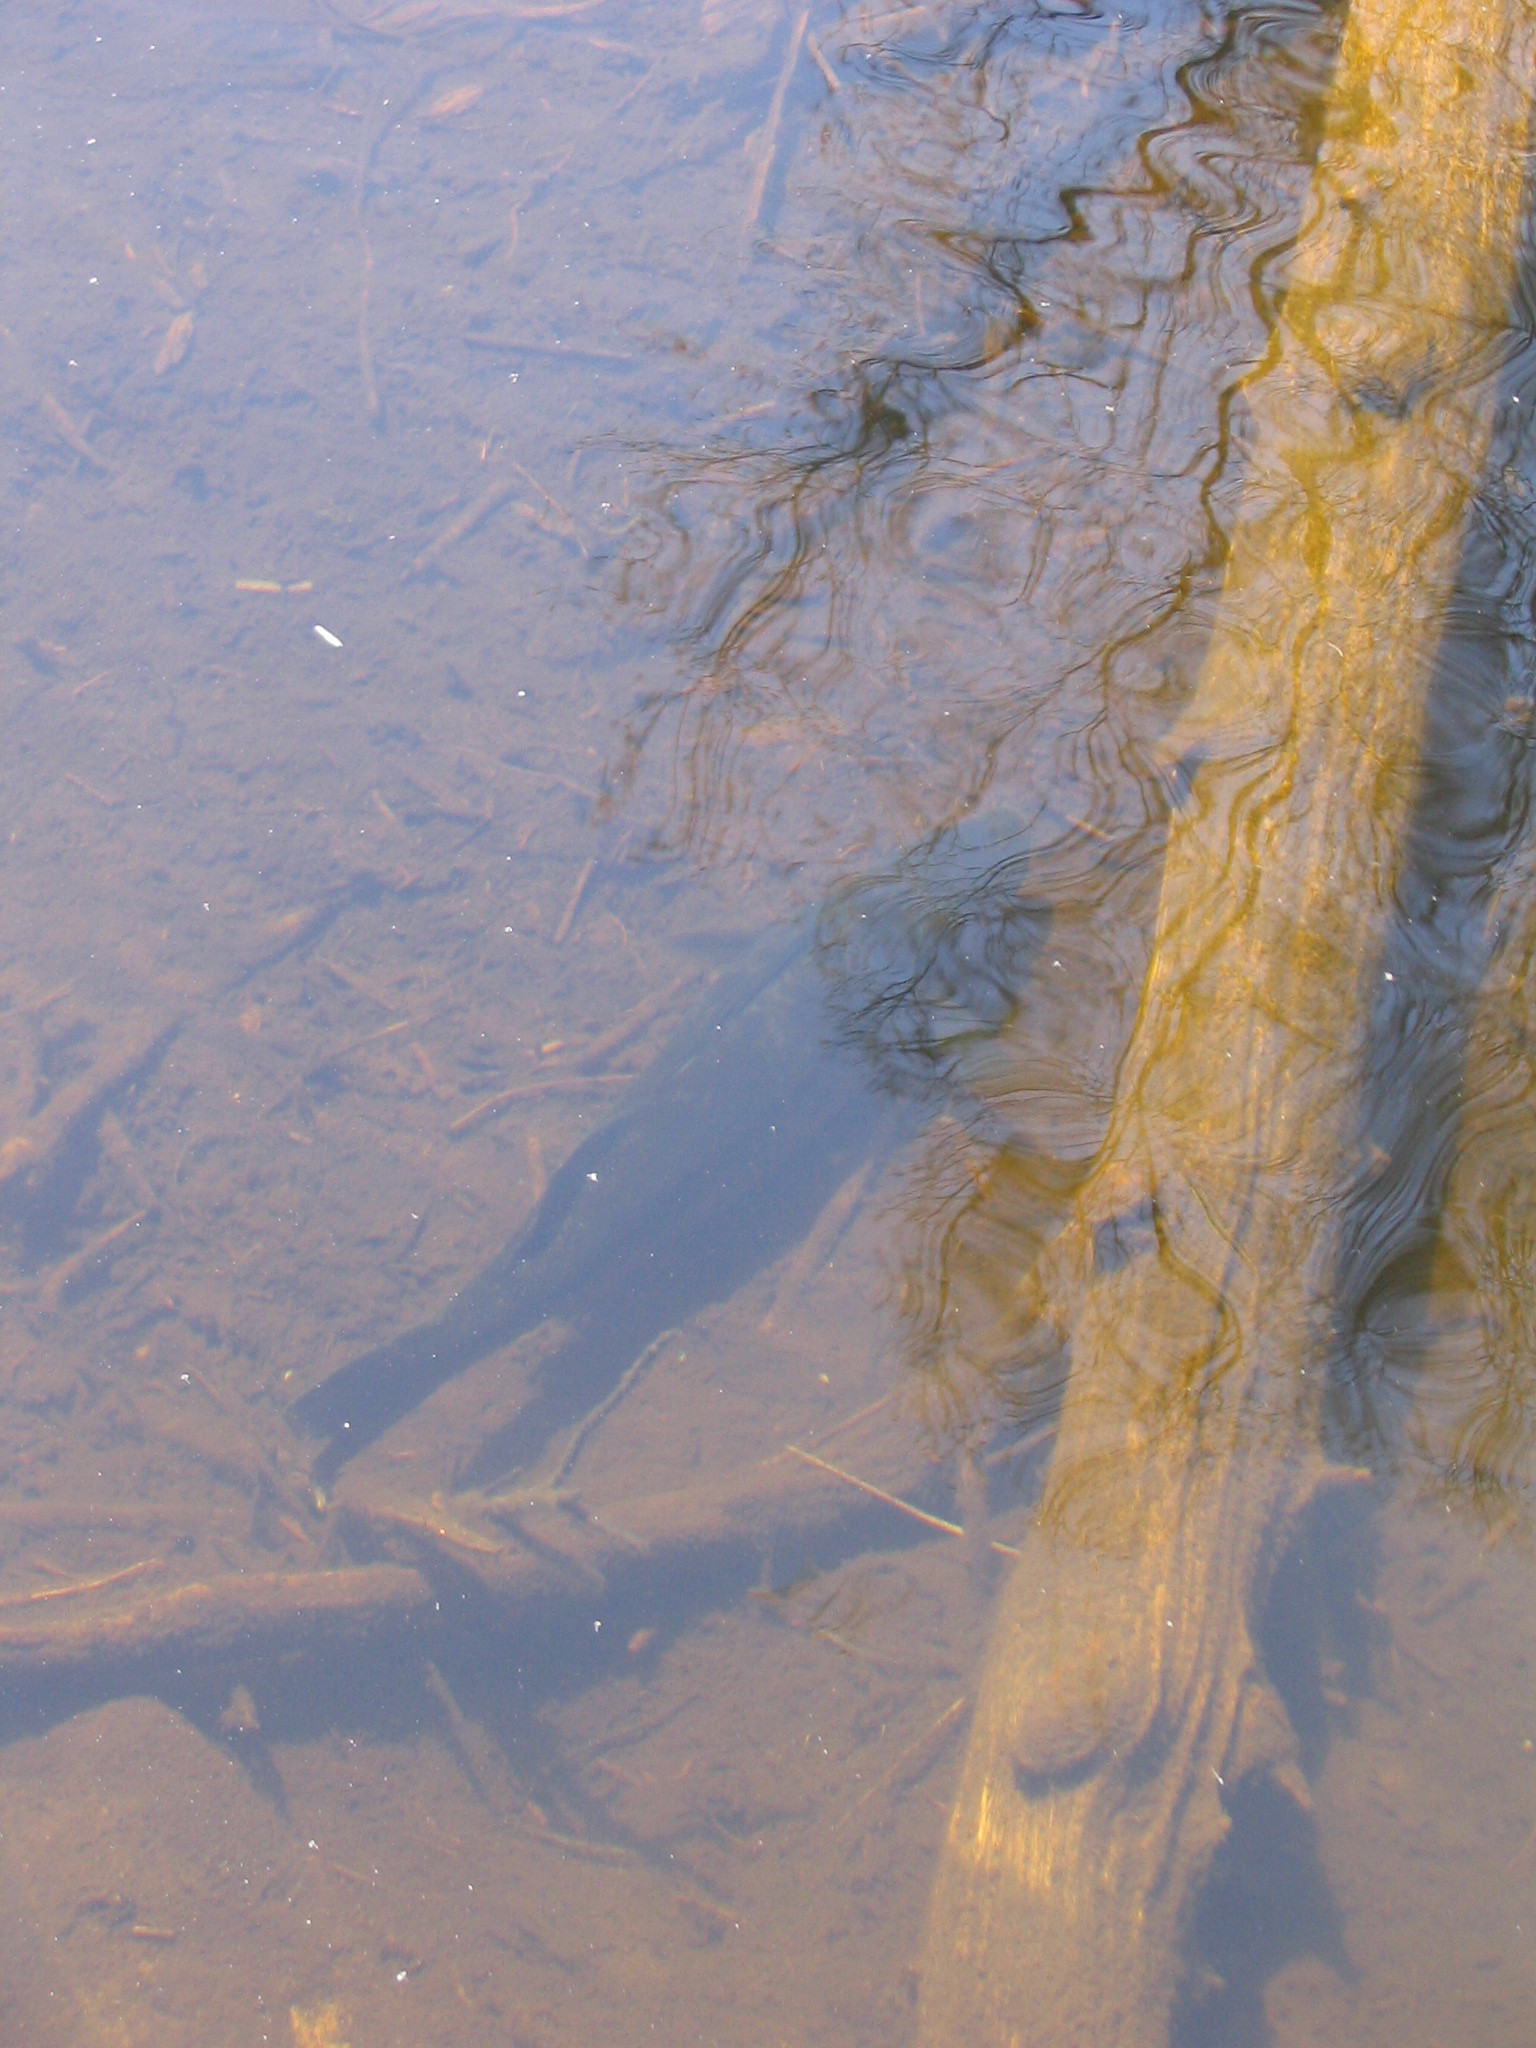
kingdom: Animalia
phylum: Chordata
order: Perciformes
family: Percidae
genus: Sander
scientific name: Sander vitreus
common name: Walleye
